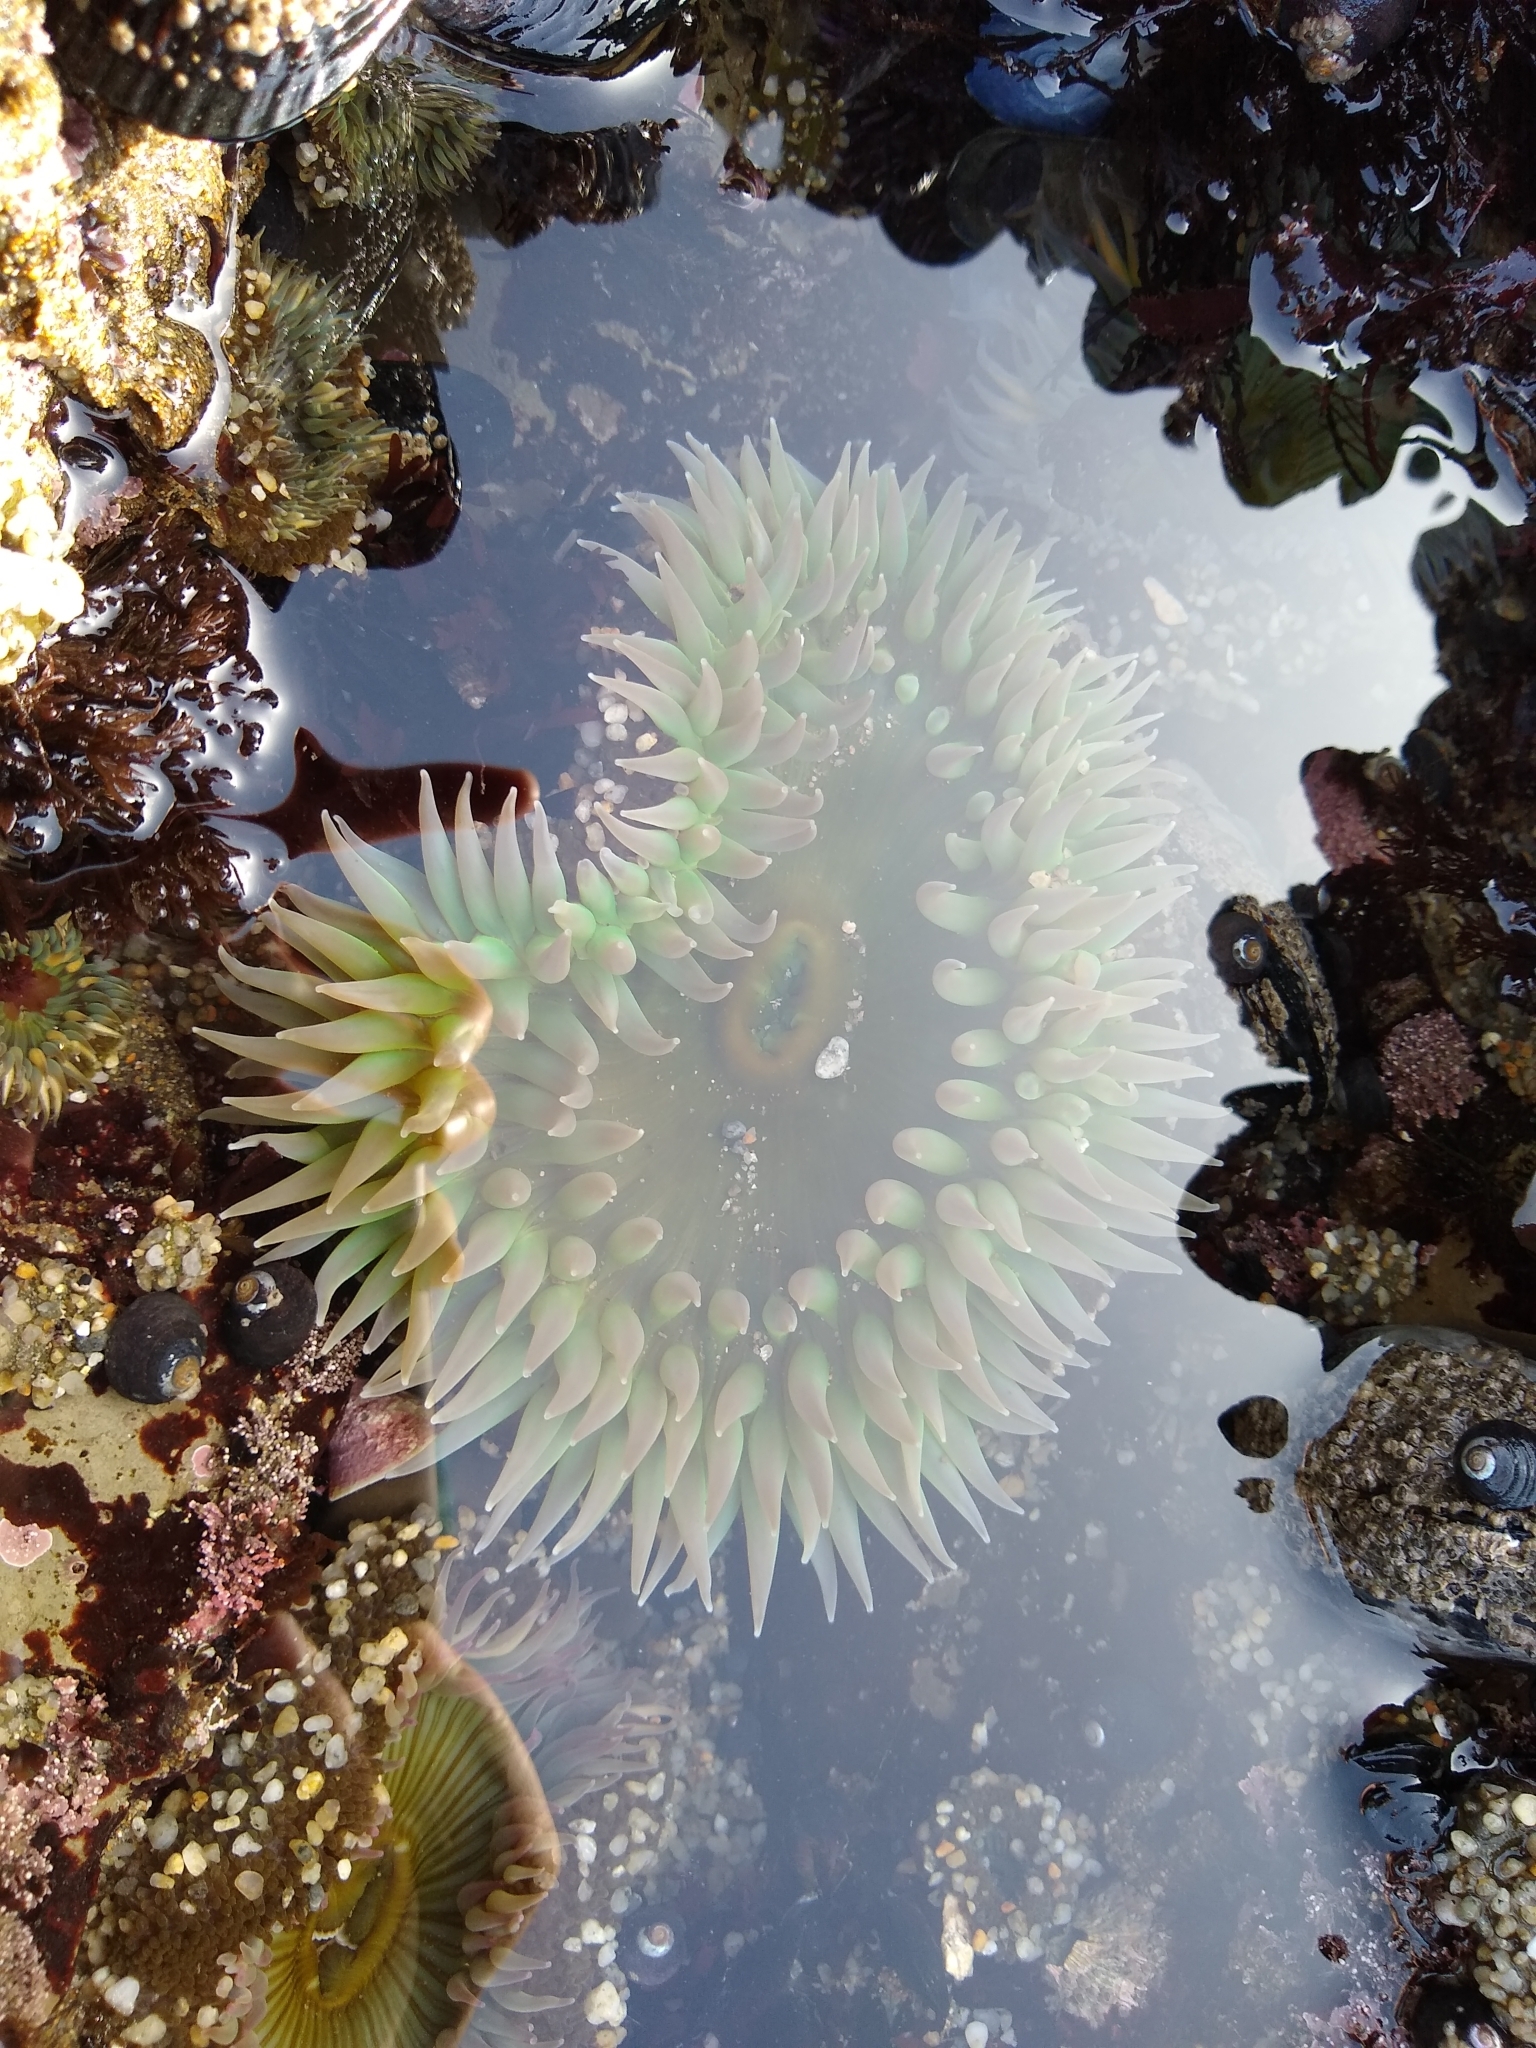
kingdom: Animalia
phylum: Cnidaria
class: Anthozoa
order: Actiniaria
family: Actiniidae
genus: Anthopleura
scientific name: Anthopleura xanthogrammica
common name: Giant green anemone
